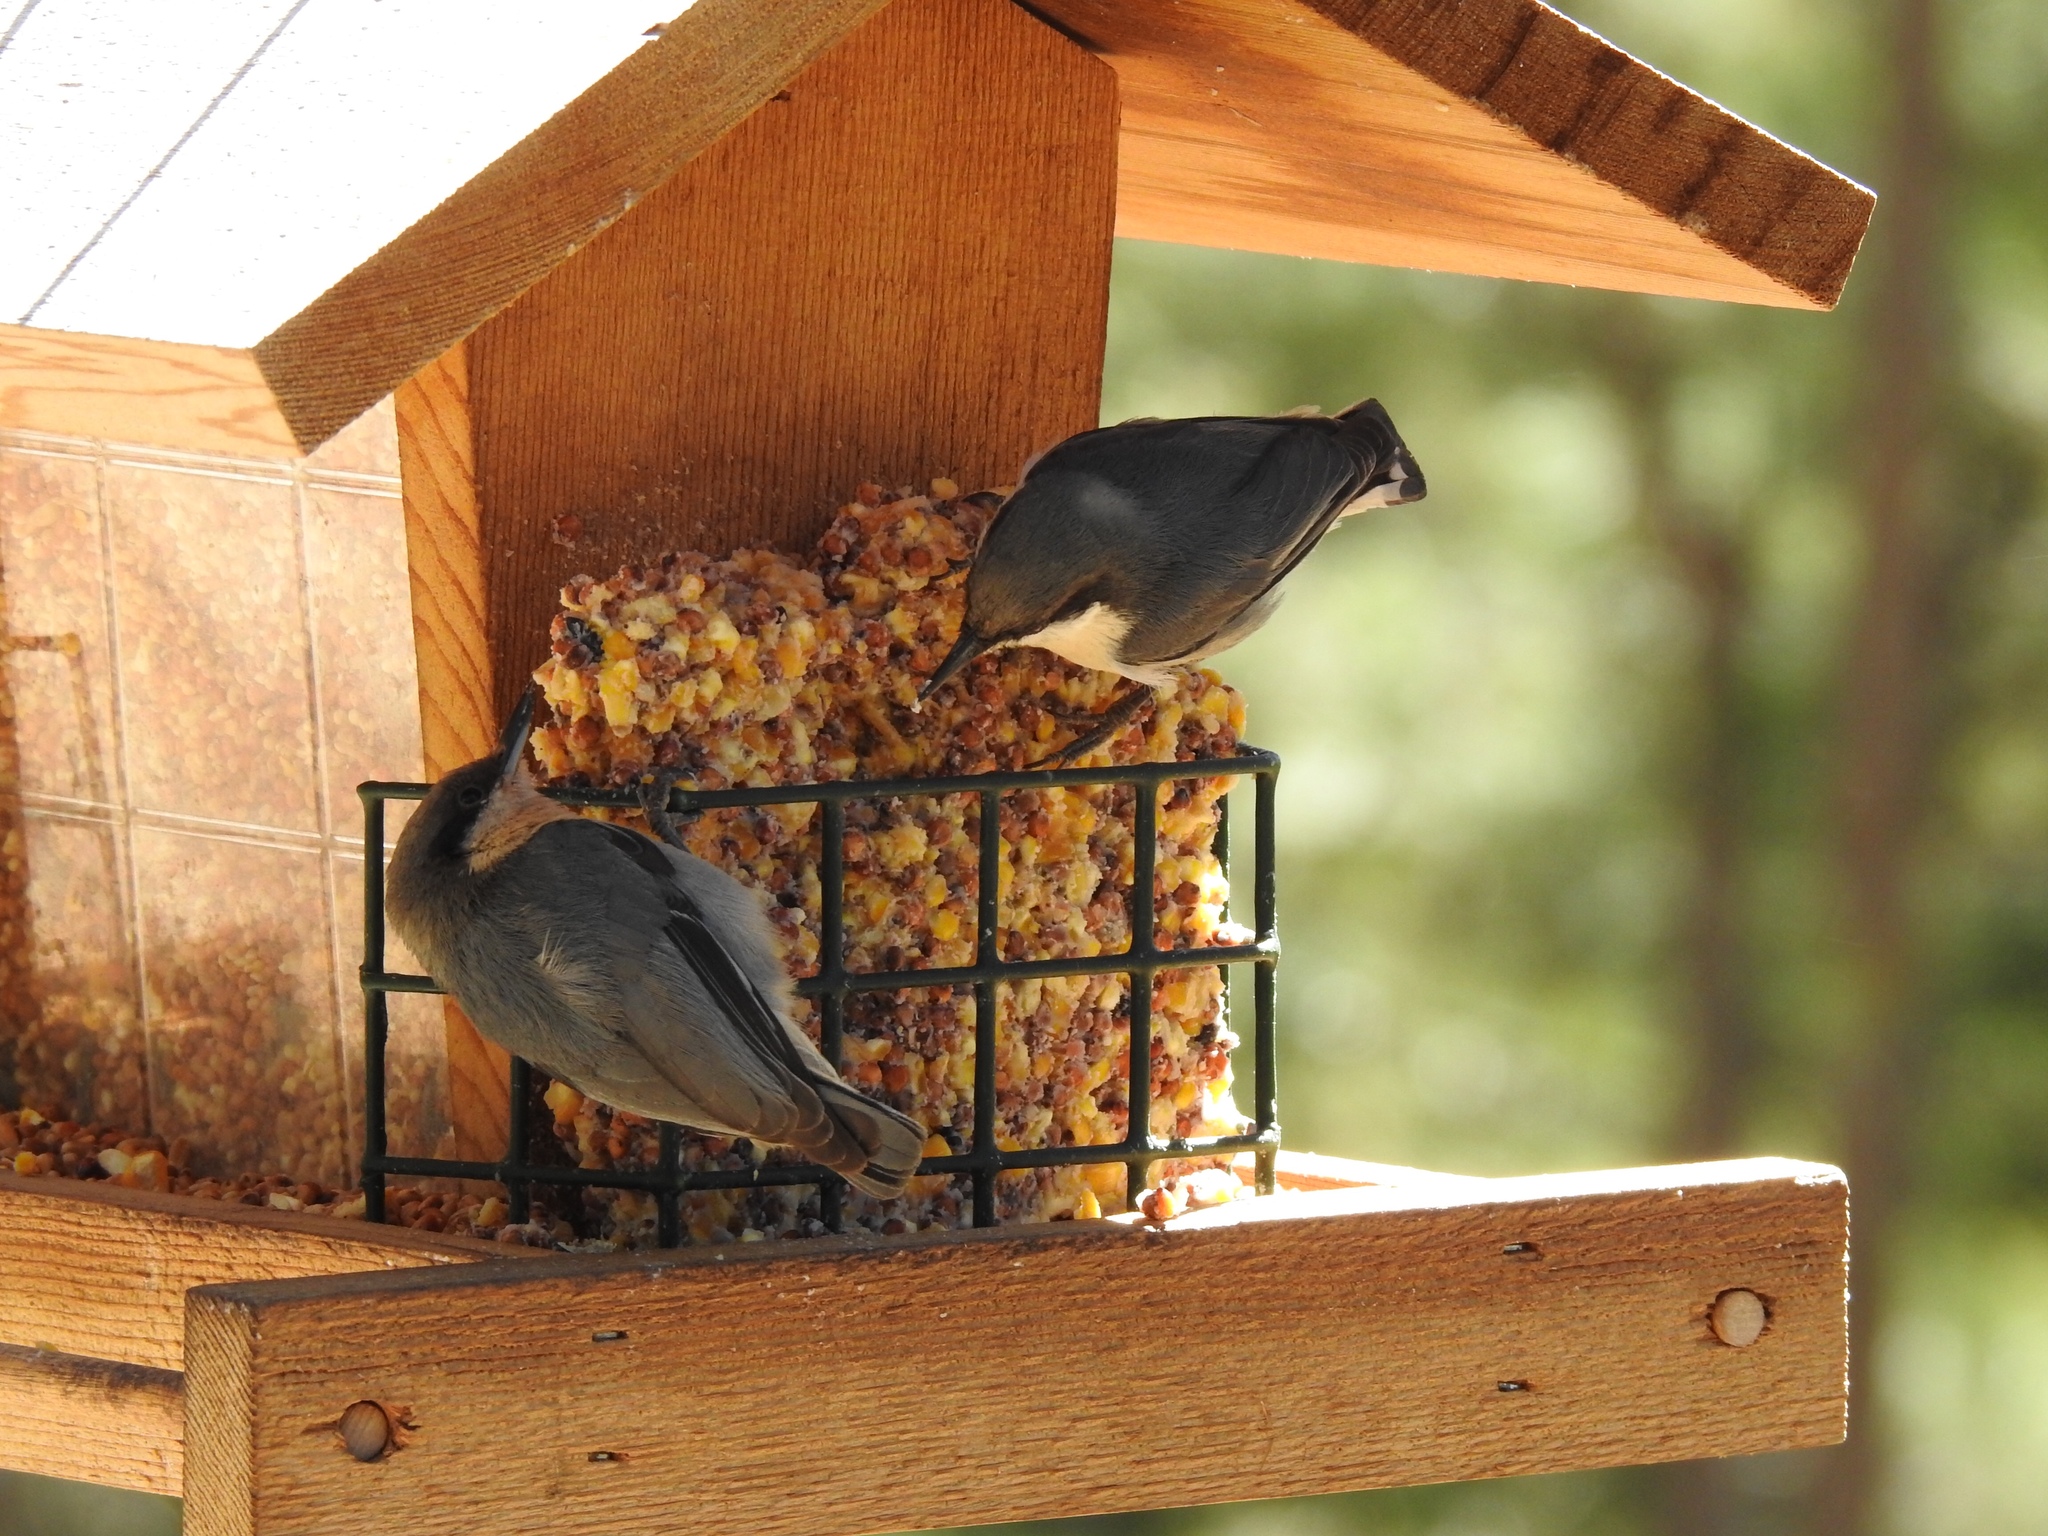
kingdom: Animalia
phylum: Chordata
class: Aves
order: Passeriformes
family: Sittidae
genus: Sitta
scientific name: Sitta pygmaea
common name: Pygmy nuthatch
